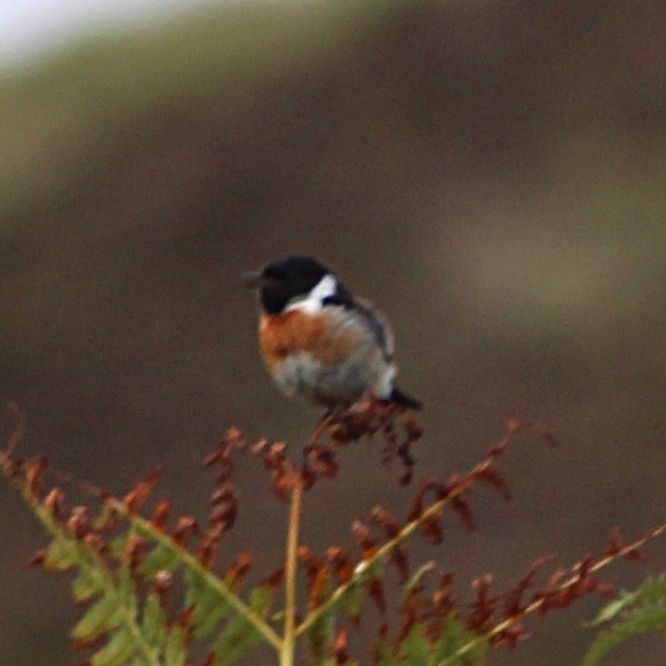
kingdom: Animalia
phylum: Chordata
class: Aves
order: Passeriformes
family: Muscicapidae
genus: Saxicola
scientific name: Saxicola rubicola
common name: European stonechat
